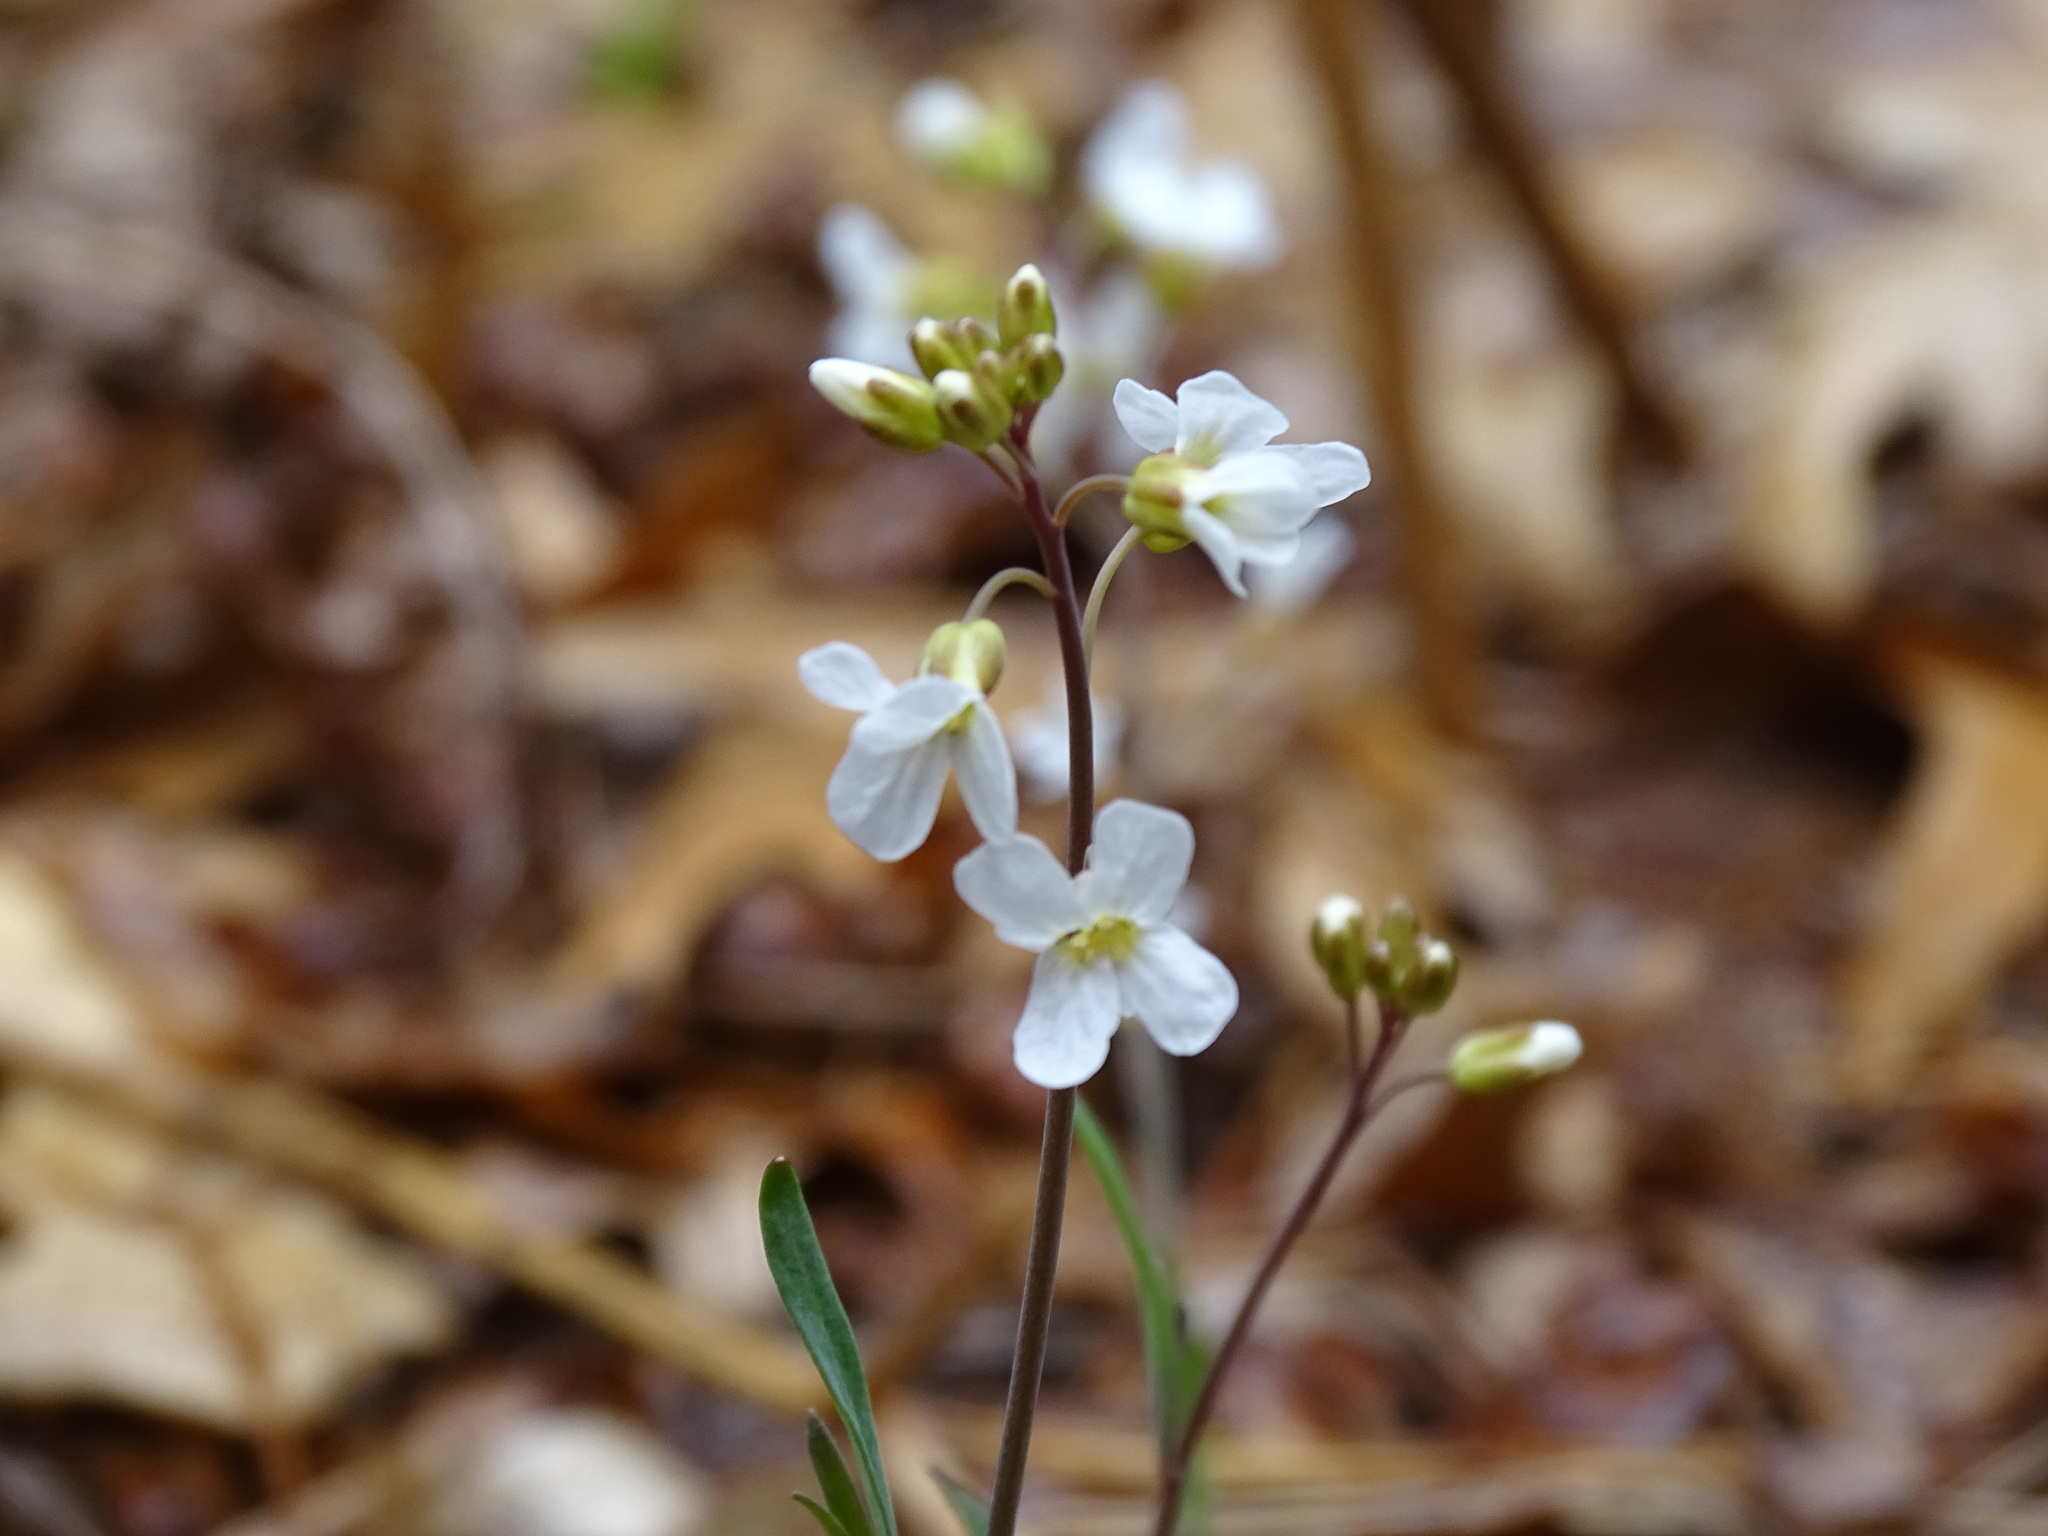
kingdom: Plantae
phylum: Tracheophyta
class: Magnoliopsida
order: Brassicales
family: Brassicaceae
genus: Arabidopsis
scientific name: Arabidopsis lyrata
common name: Lyrate rockcress
